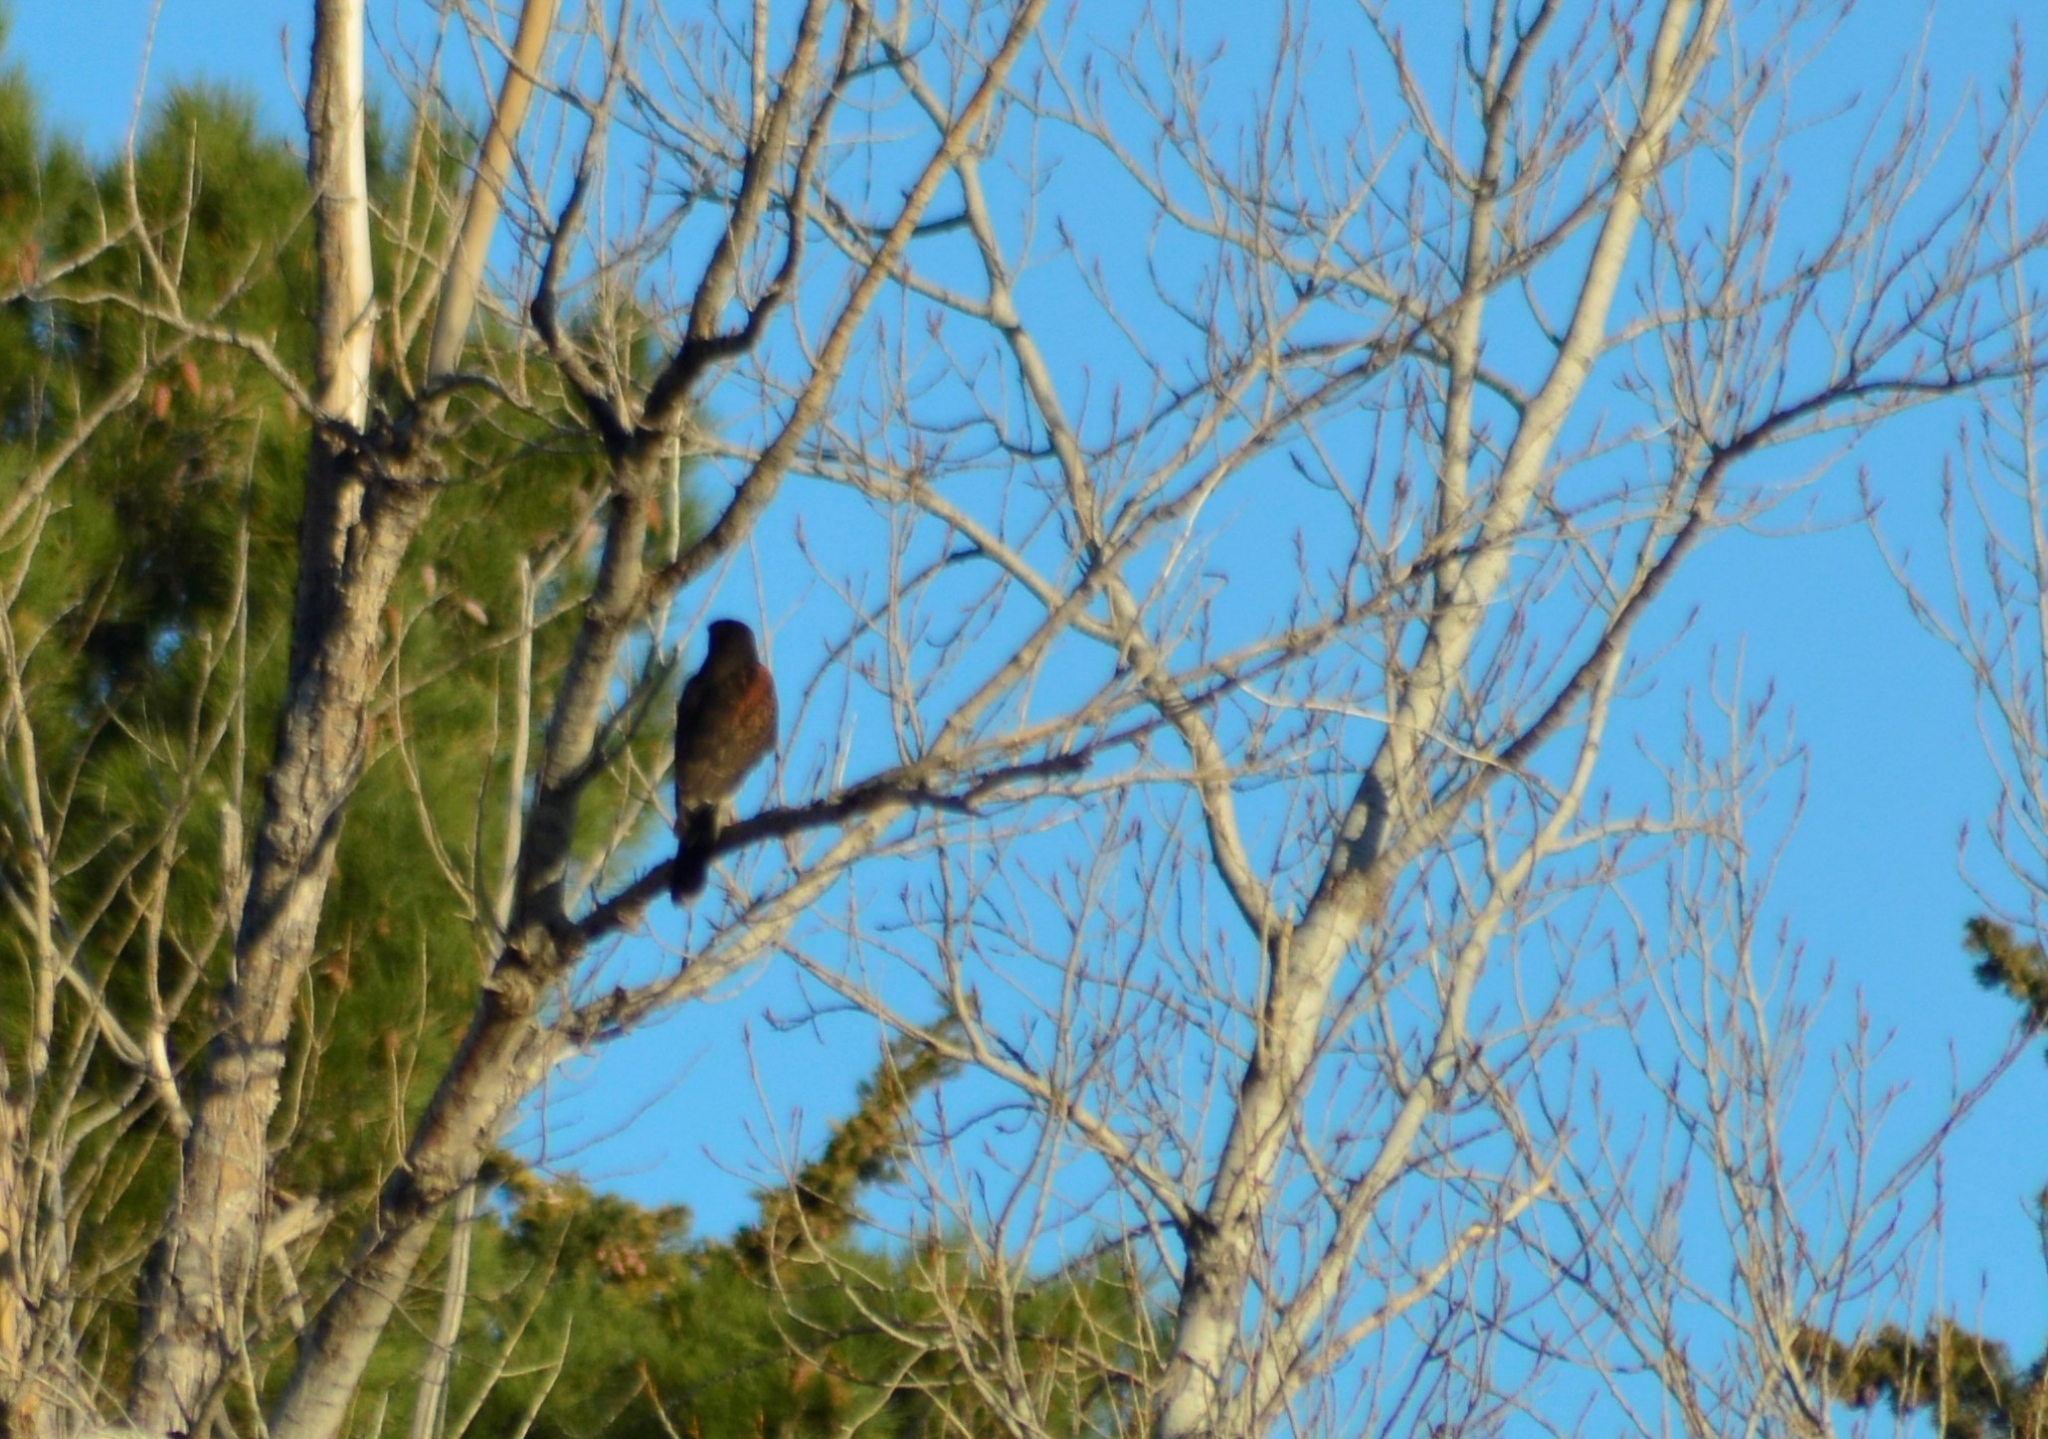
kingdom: Animalia
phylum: Chordata
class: Aves
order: Accipitriformes
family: Accipitridae
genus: Parabuteo
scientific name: Parabuteo unicinctus
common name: Harris's hawk
